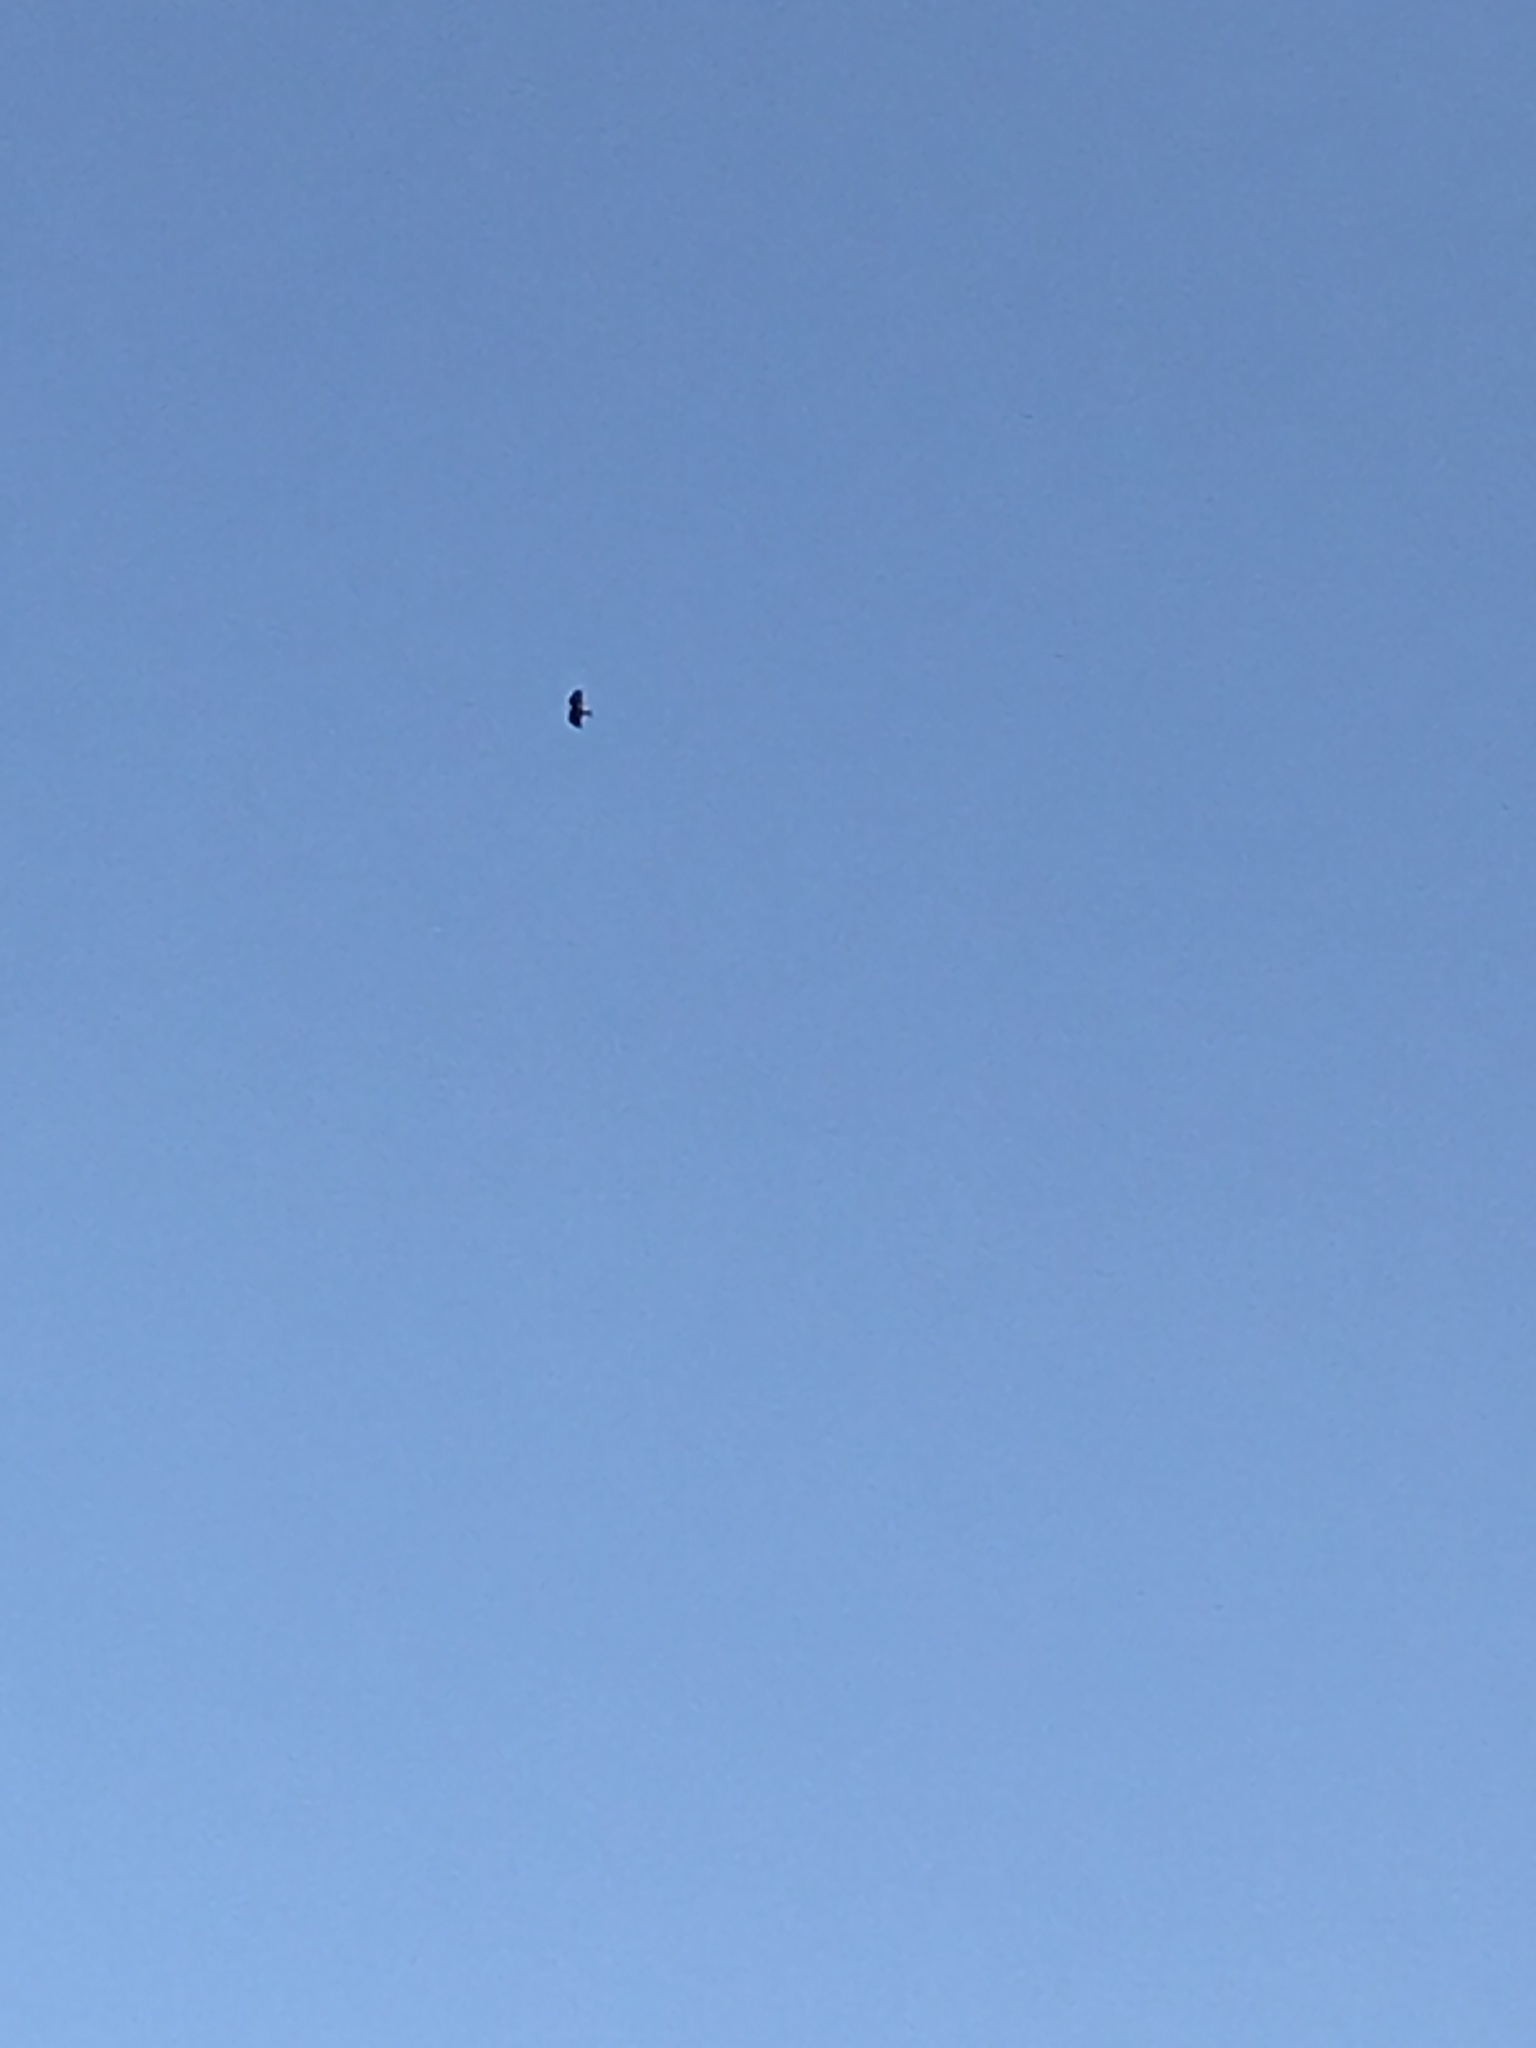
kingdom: Animalia
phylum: Chordata
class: Aves
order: Accipitriformes
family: Cathartidae
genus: Cathartes
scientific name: Cathartes aura
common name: Turkey vulture
